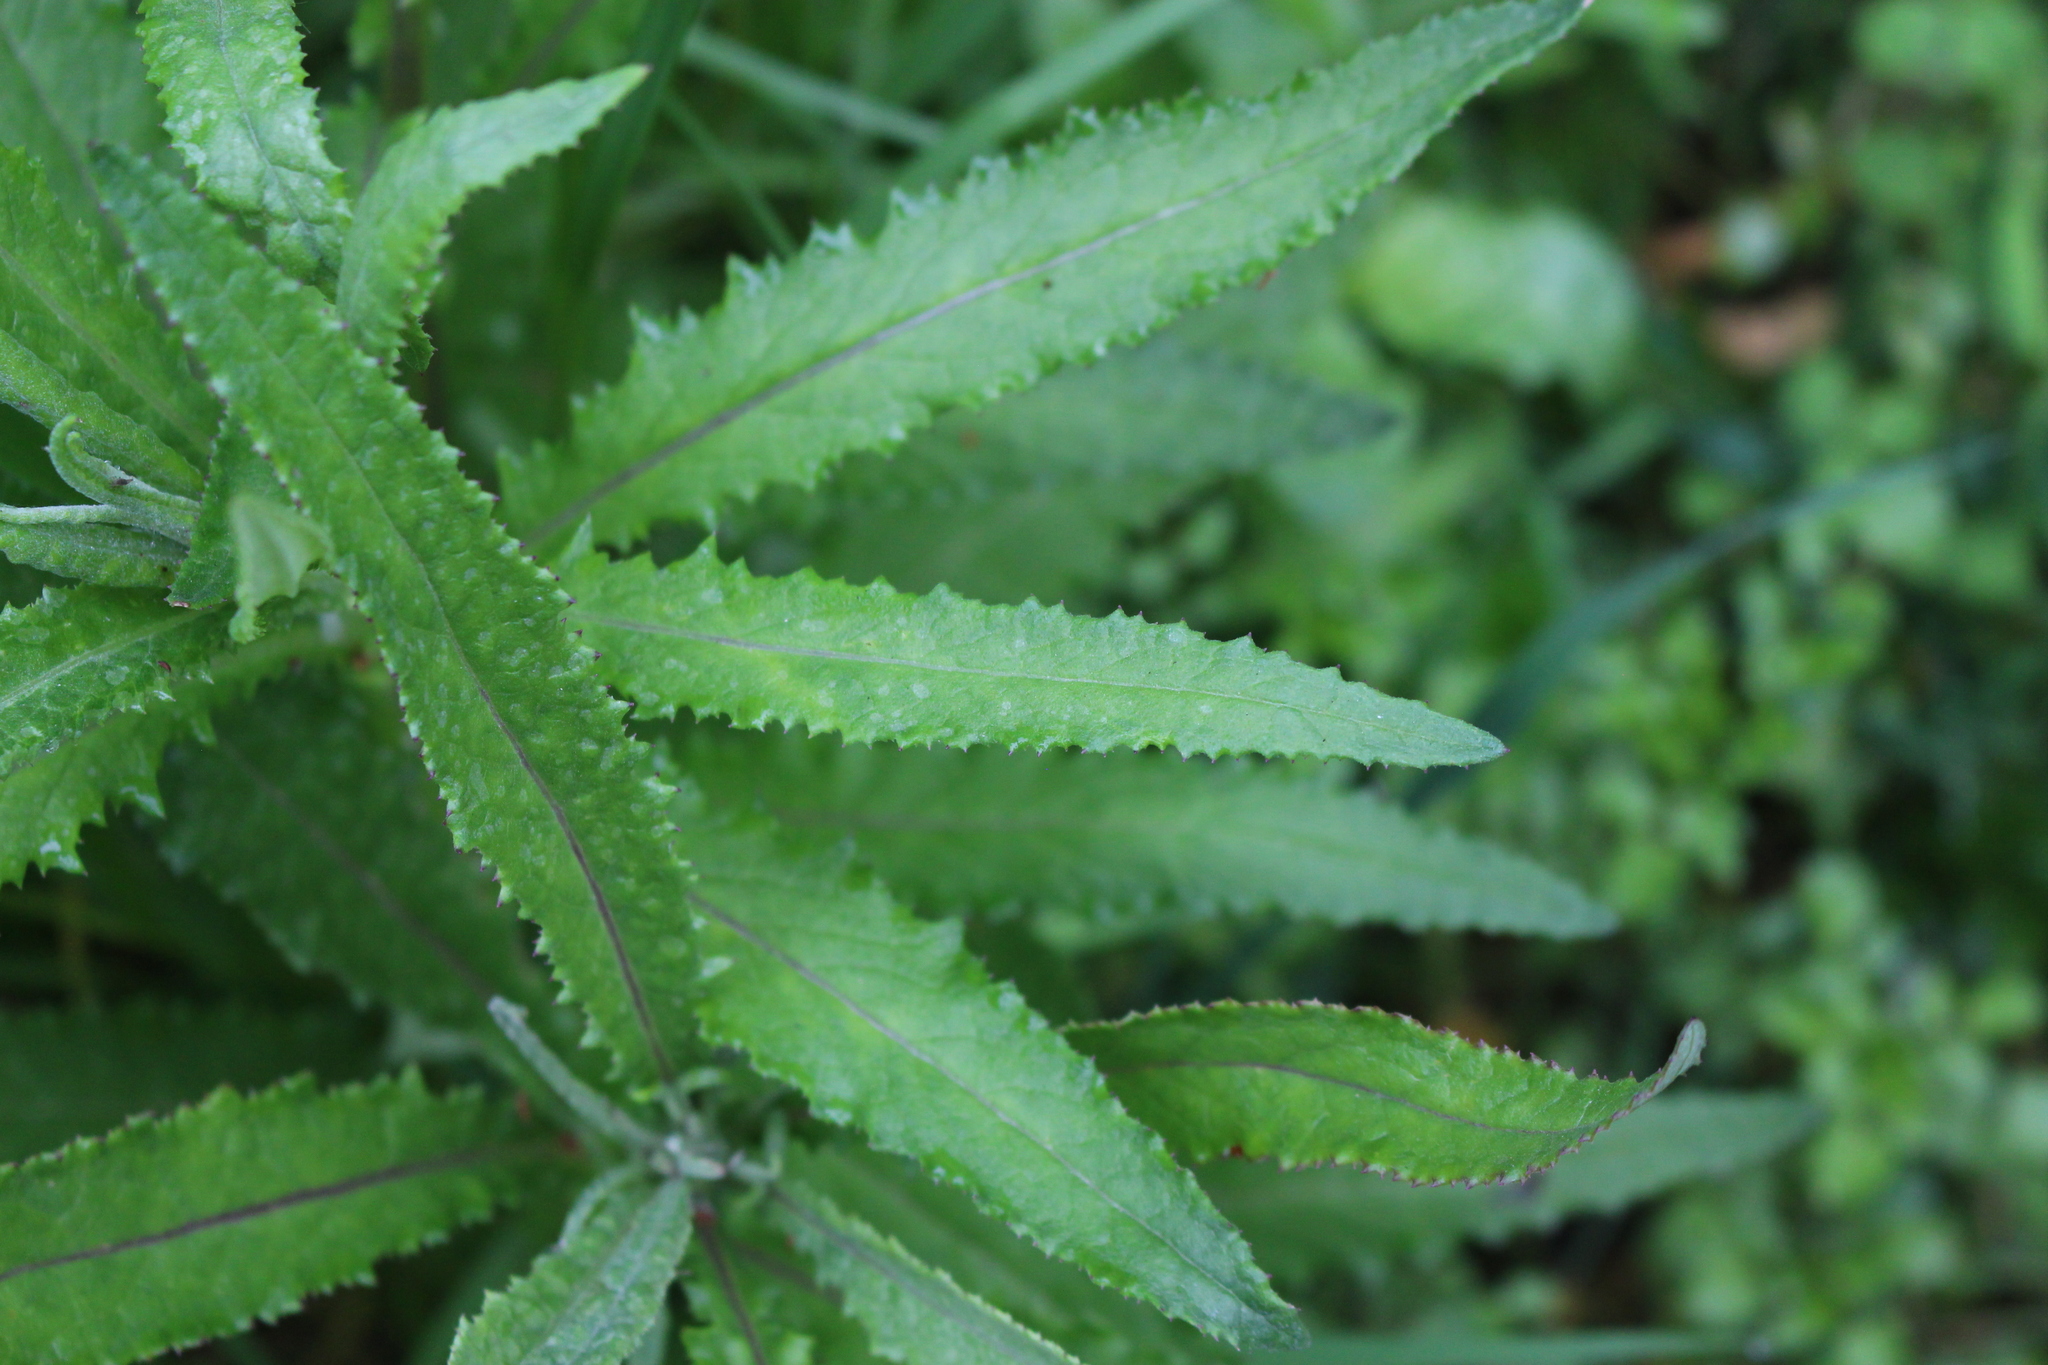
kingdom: Plantae
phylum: Tracheophyta
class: Magnoliopsida
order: Asterales
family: Asteraceae
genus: Senecio
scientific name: Senecio minimus
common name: Toothed fireweed
